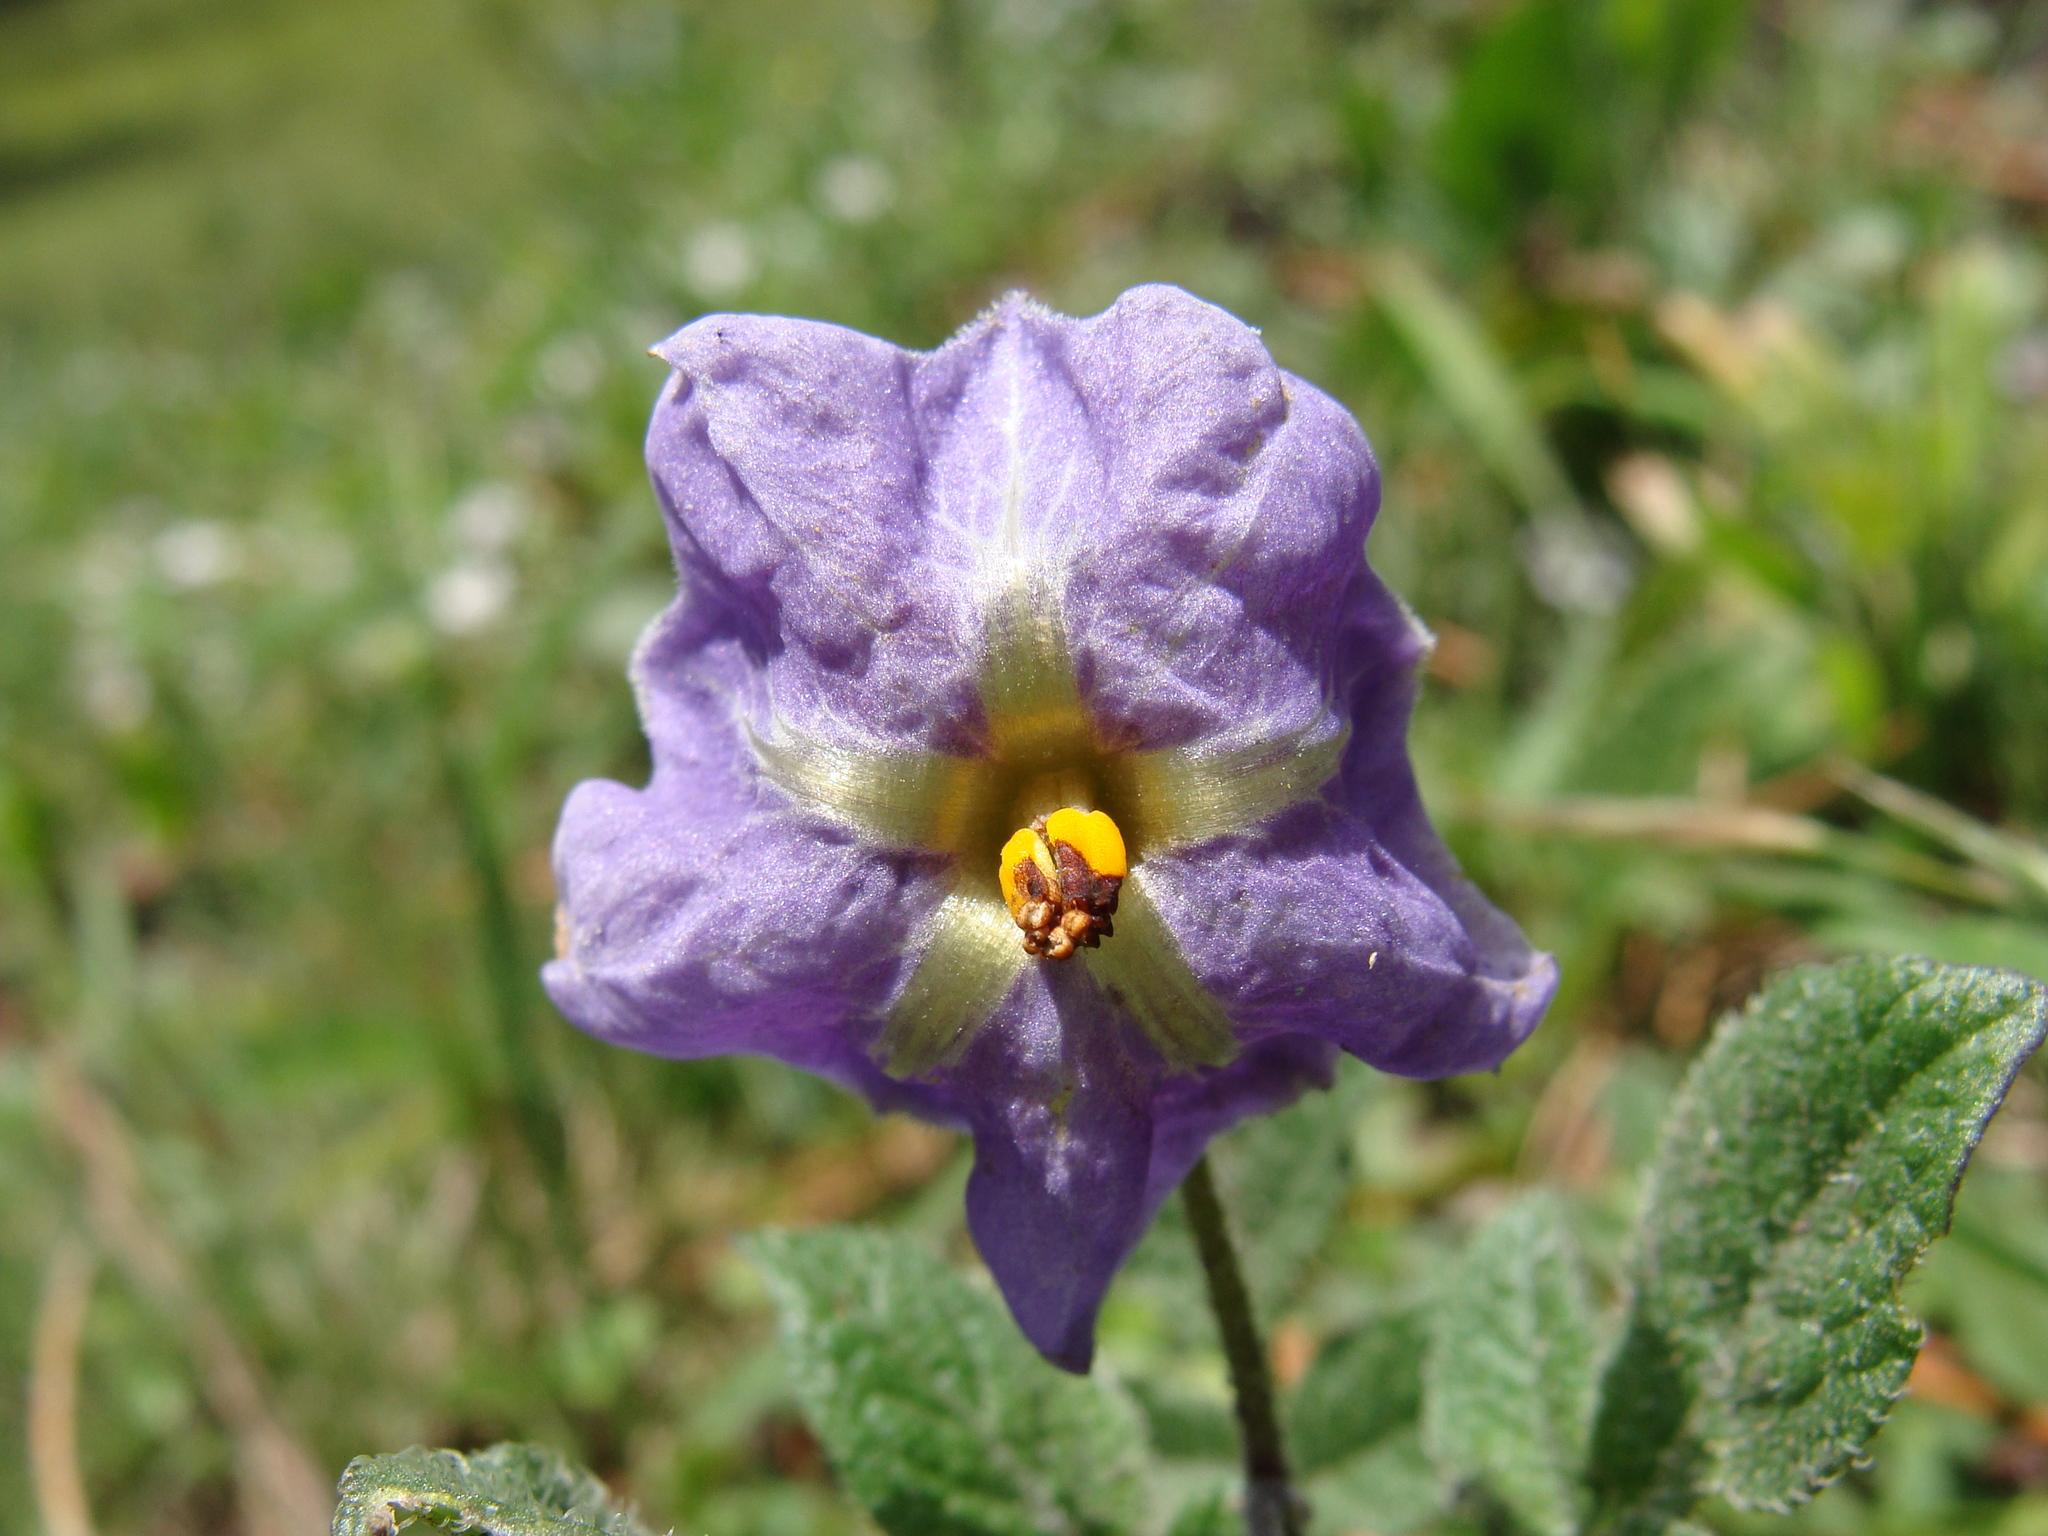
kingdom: Plantae
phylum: Tracheophyta
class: Magnoliopsida
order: Solanales
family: Solanaceae
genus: Solanum
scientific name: Solanum demissum
